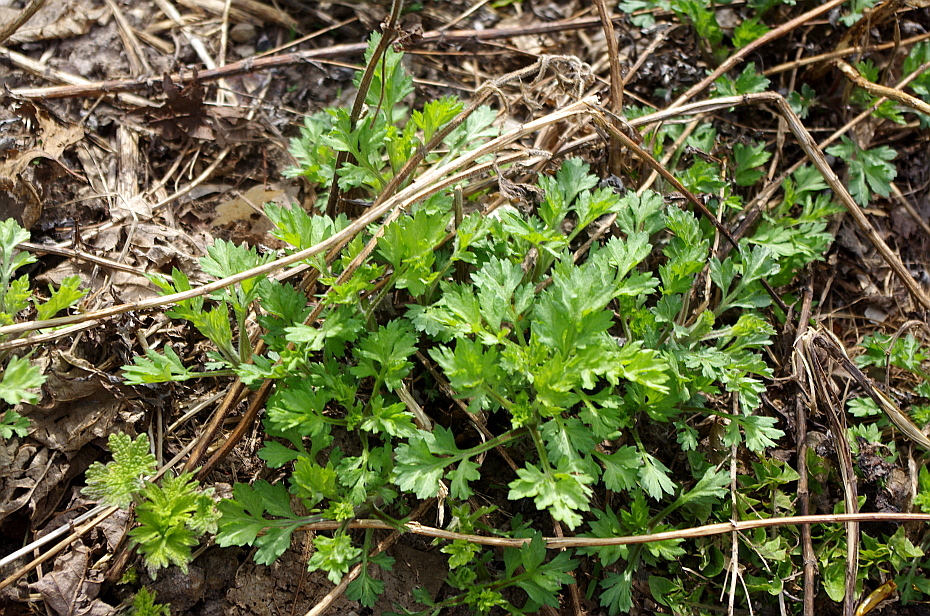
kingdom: Plantae
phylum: Tracheophyta
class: Magnoliopsida
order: Asterales
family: Asteraceae
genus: Artemisia
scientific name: Artemisia vulgaris
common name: Mugwort
